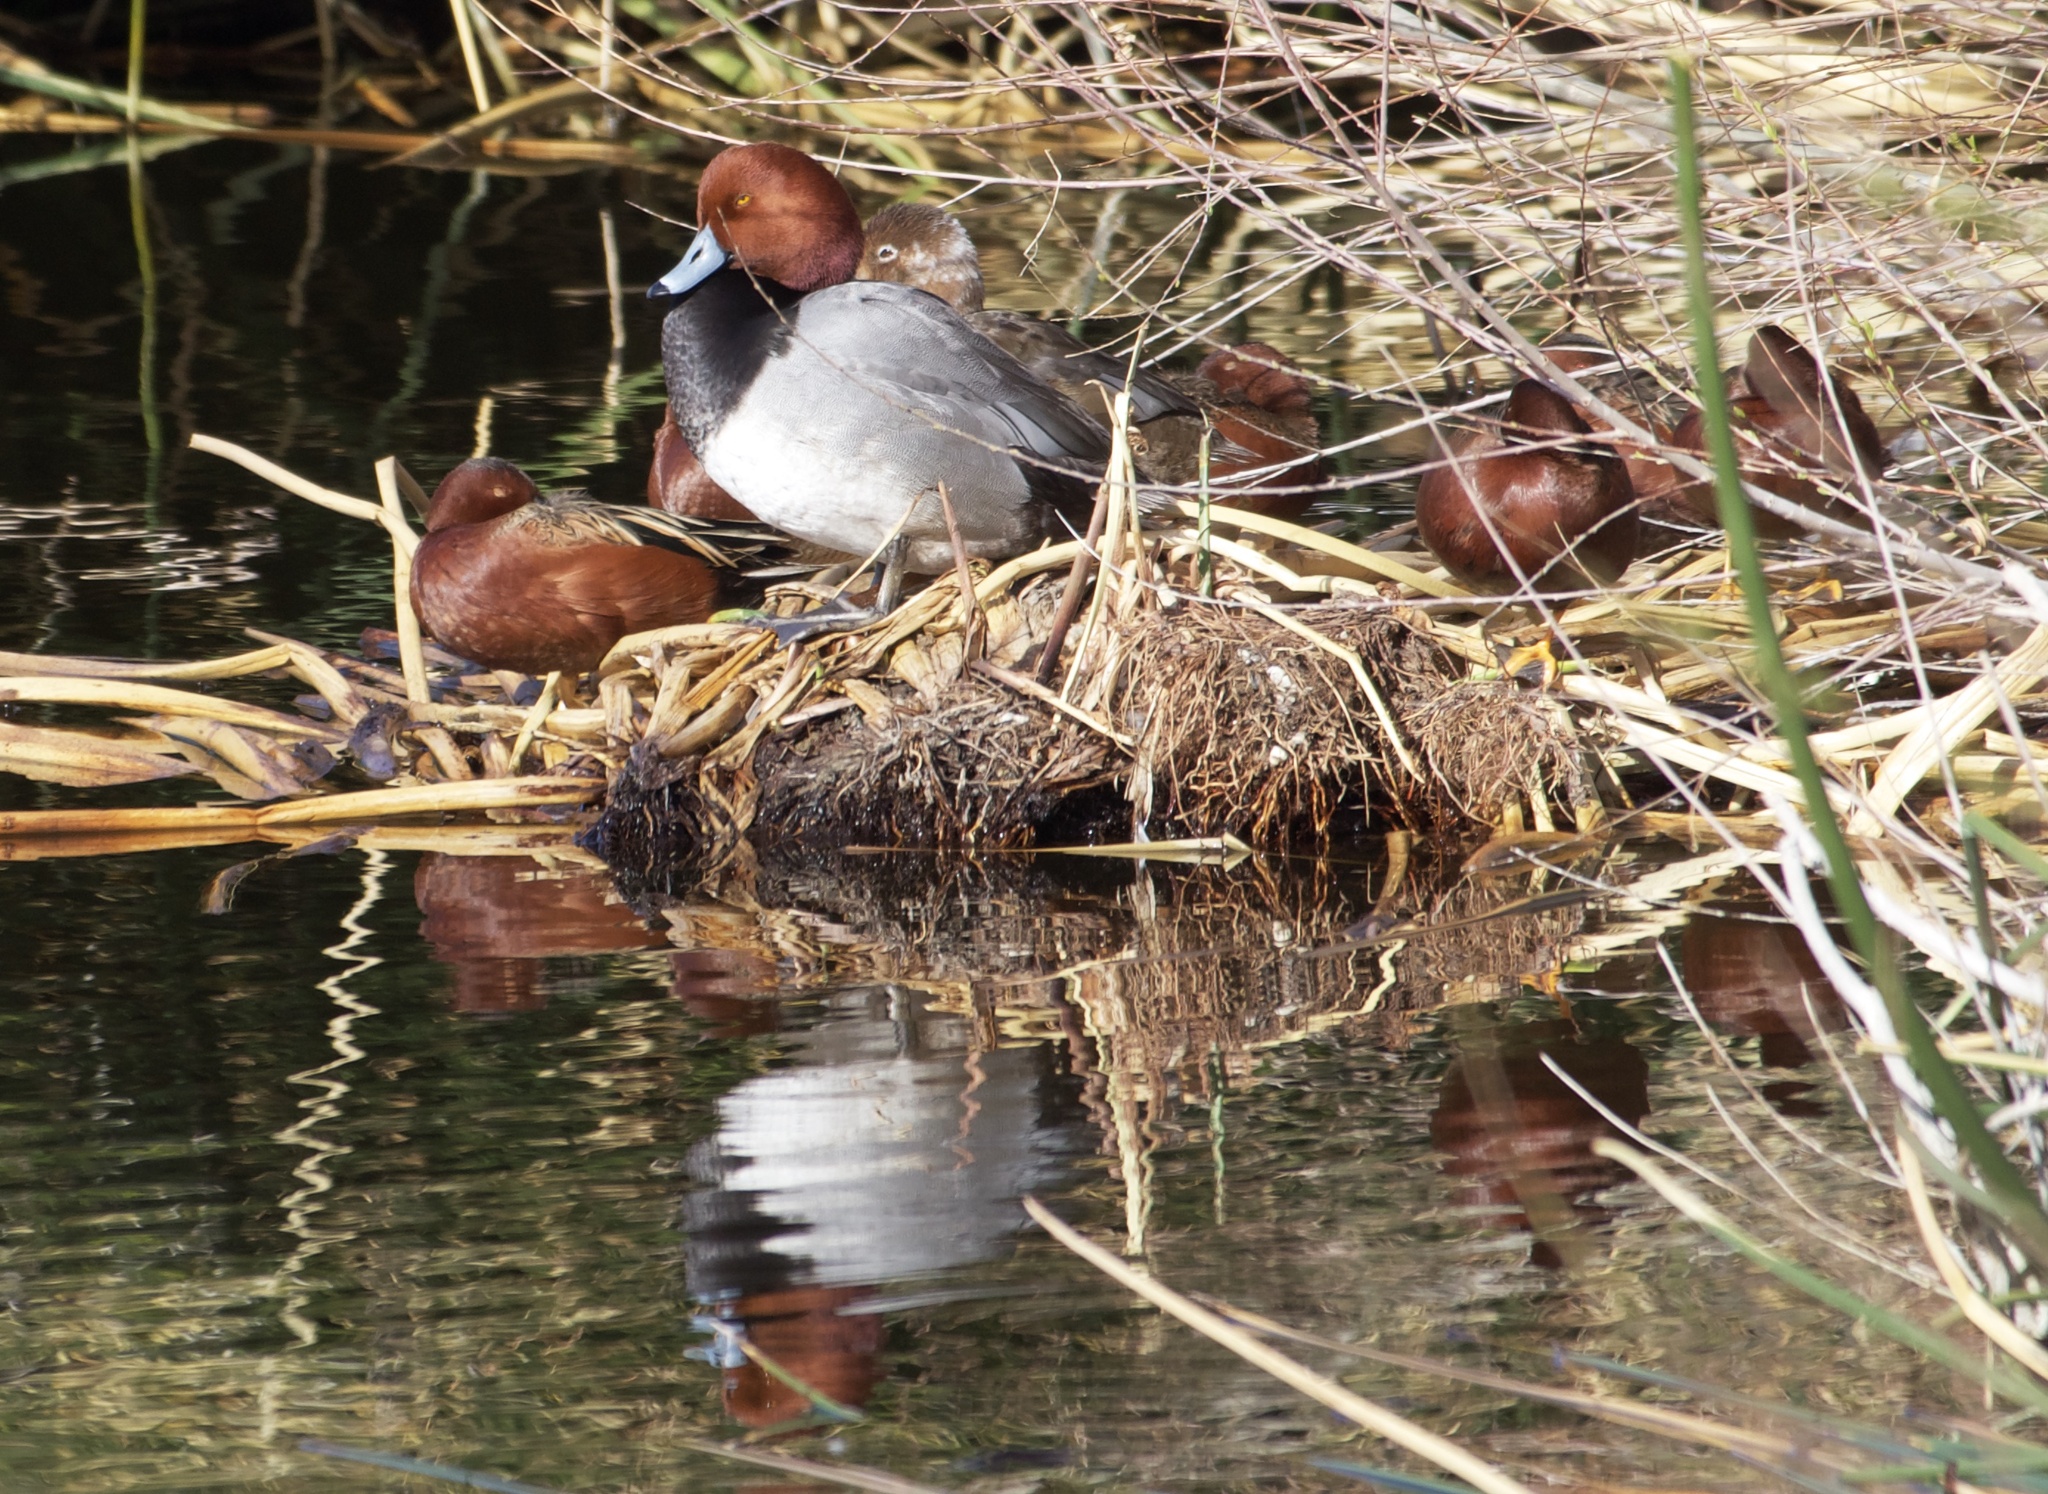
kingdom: Animalia
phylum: Chordata
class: Aves
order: Anseriformes
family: Anatidae
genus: Aythya
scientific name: Aythya americana
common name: Redhead
